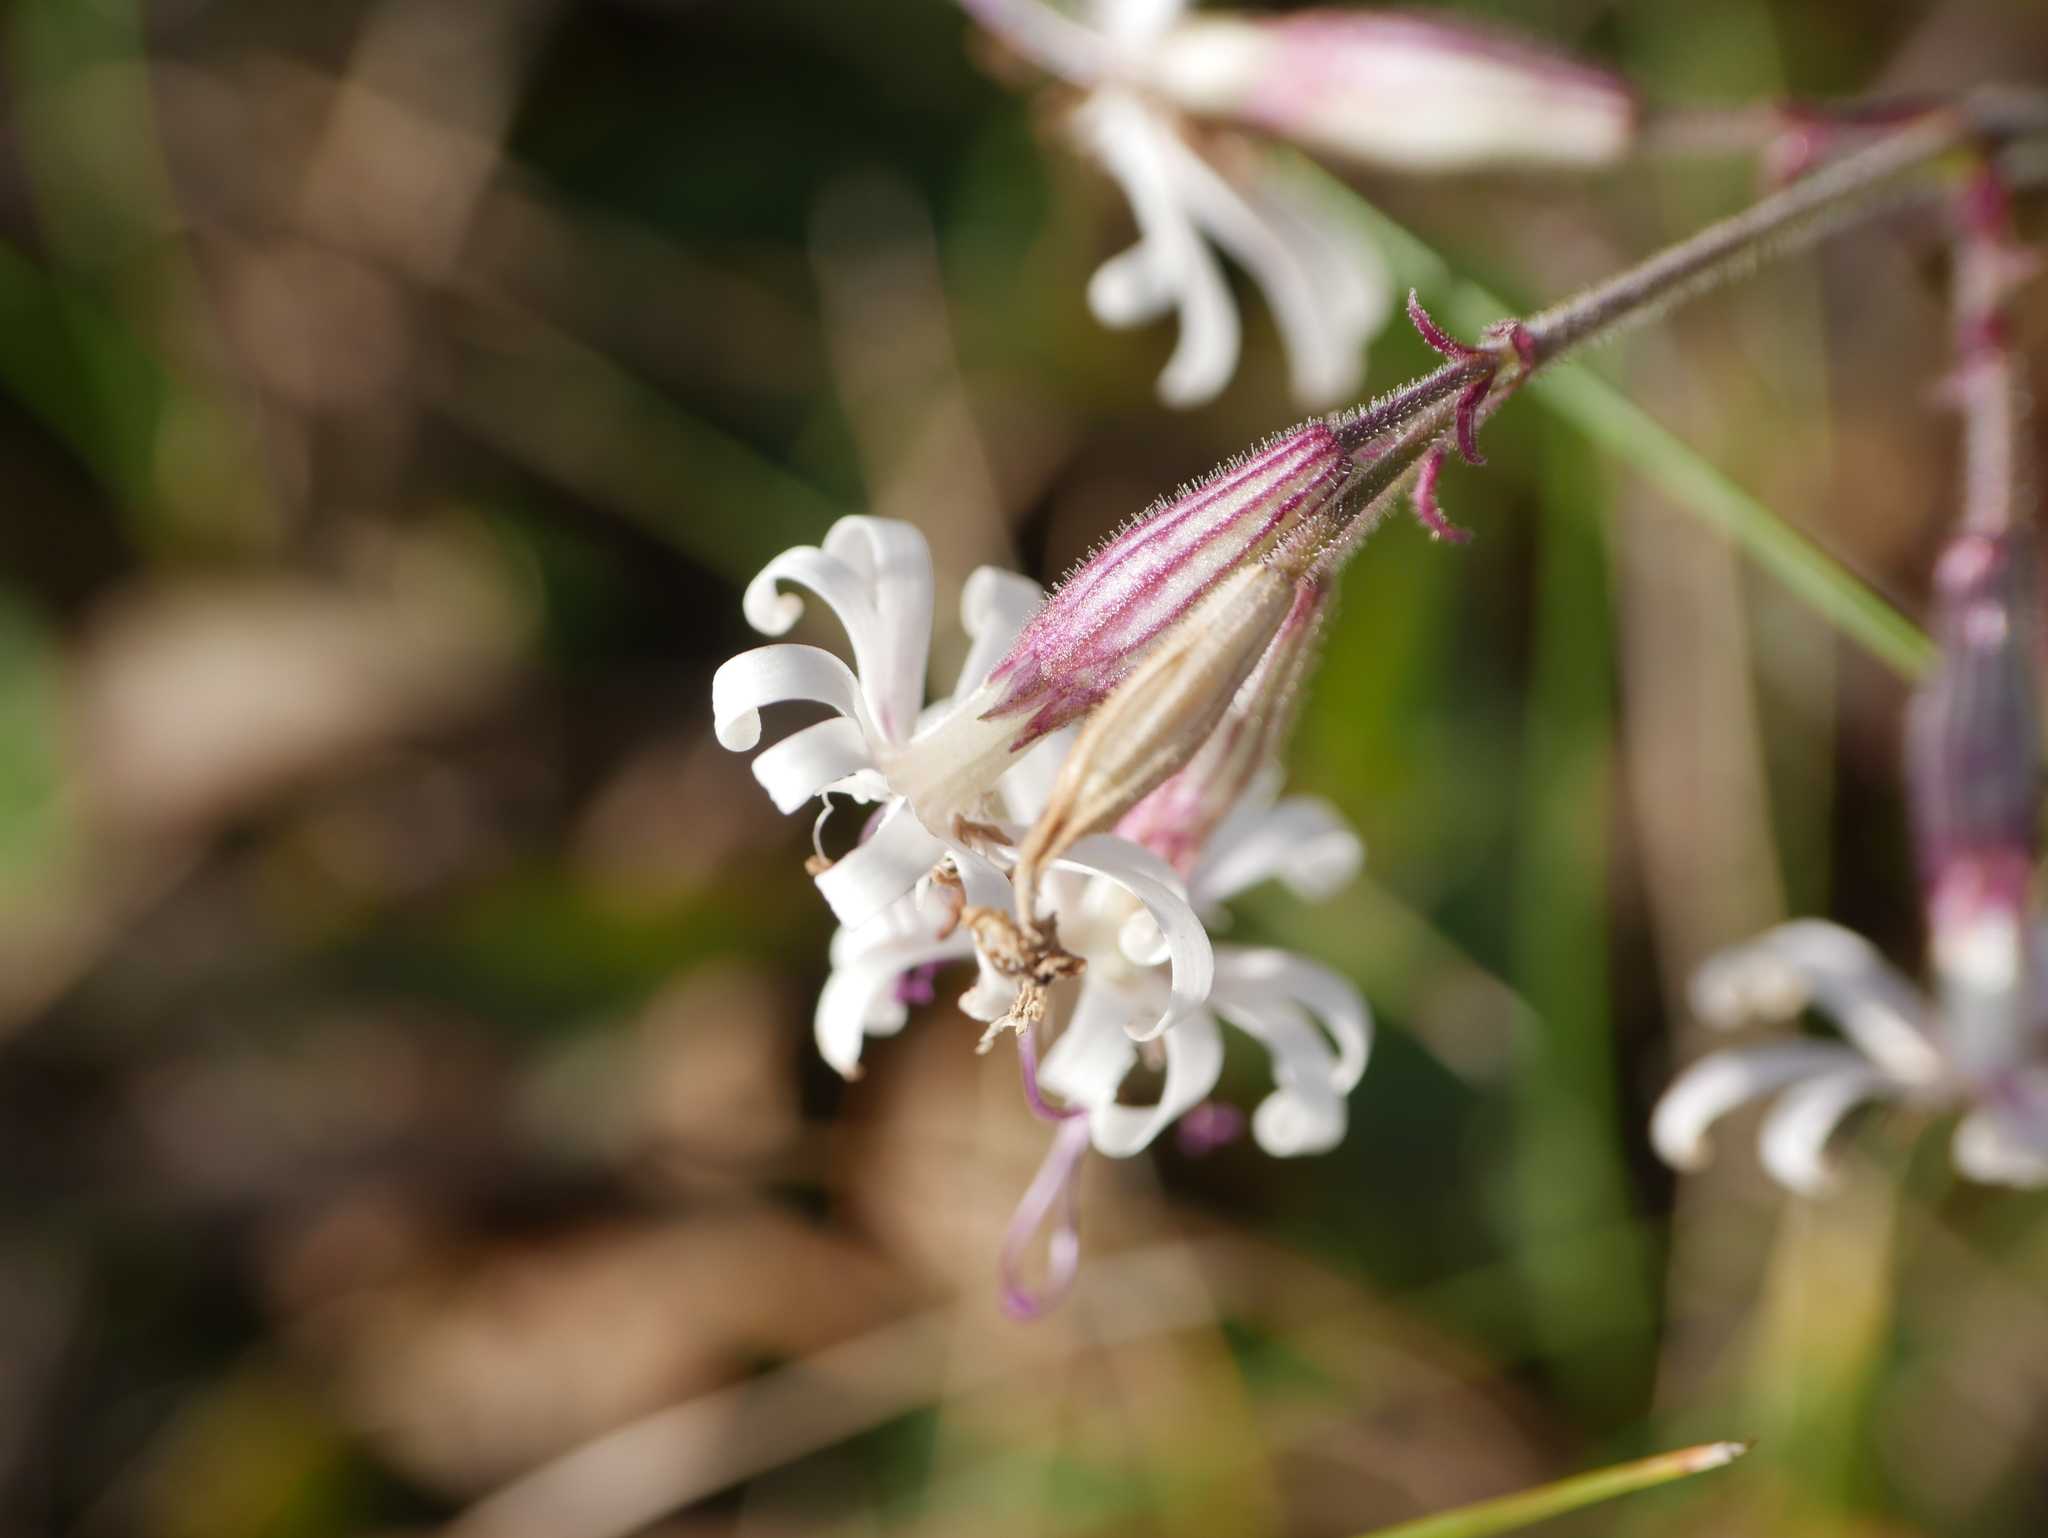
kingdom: Plantae
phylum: Tracheophyta
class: Magnoliopsida
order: Caryophyllales
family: Caryophyllaceae
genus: Silene
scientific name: Silene nutans
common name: Nottingham catchfly
